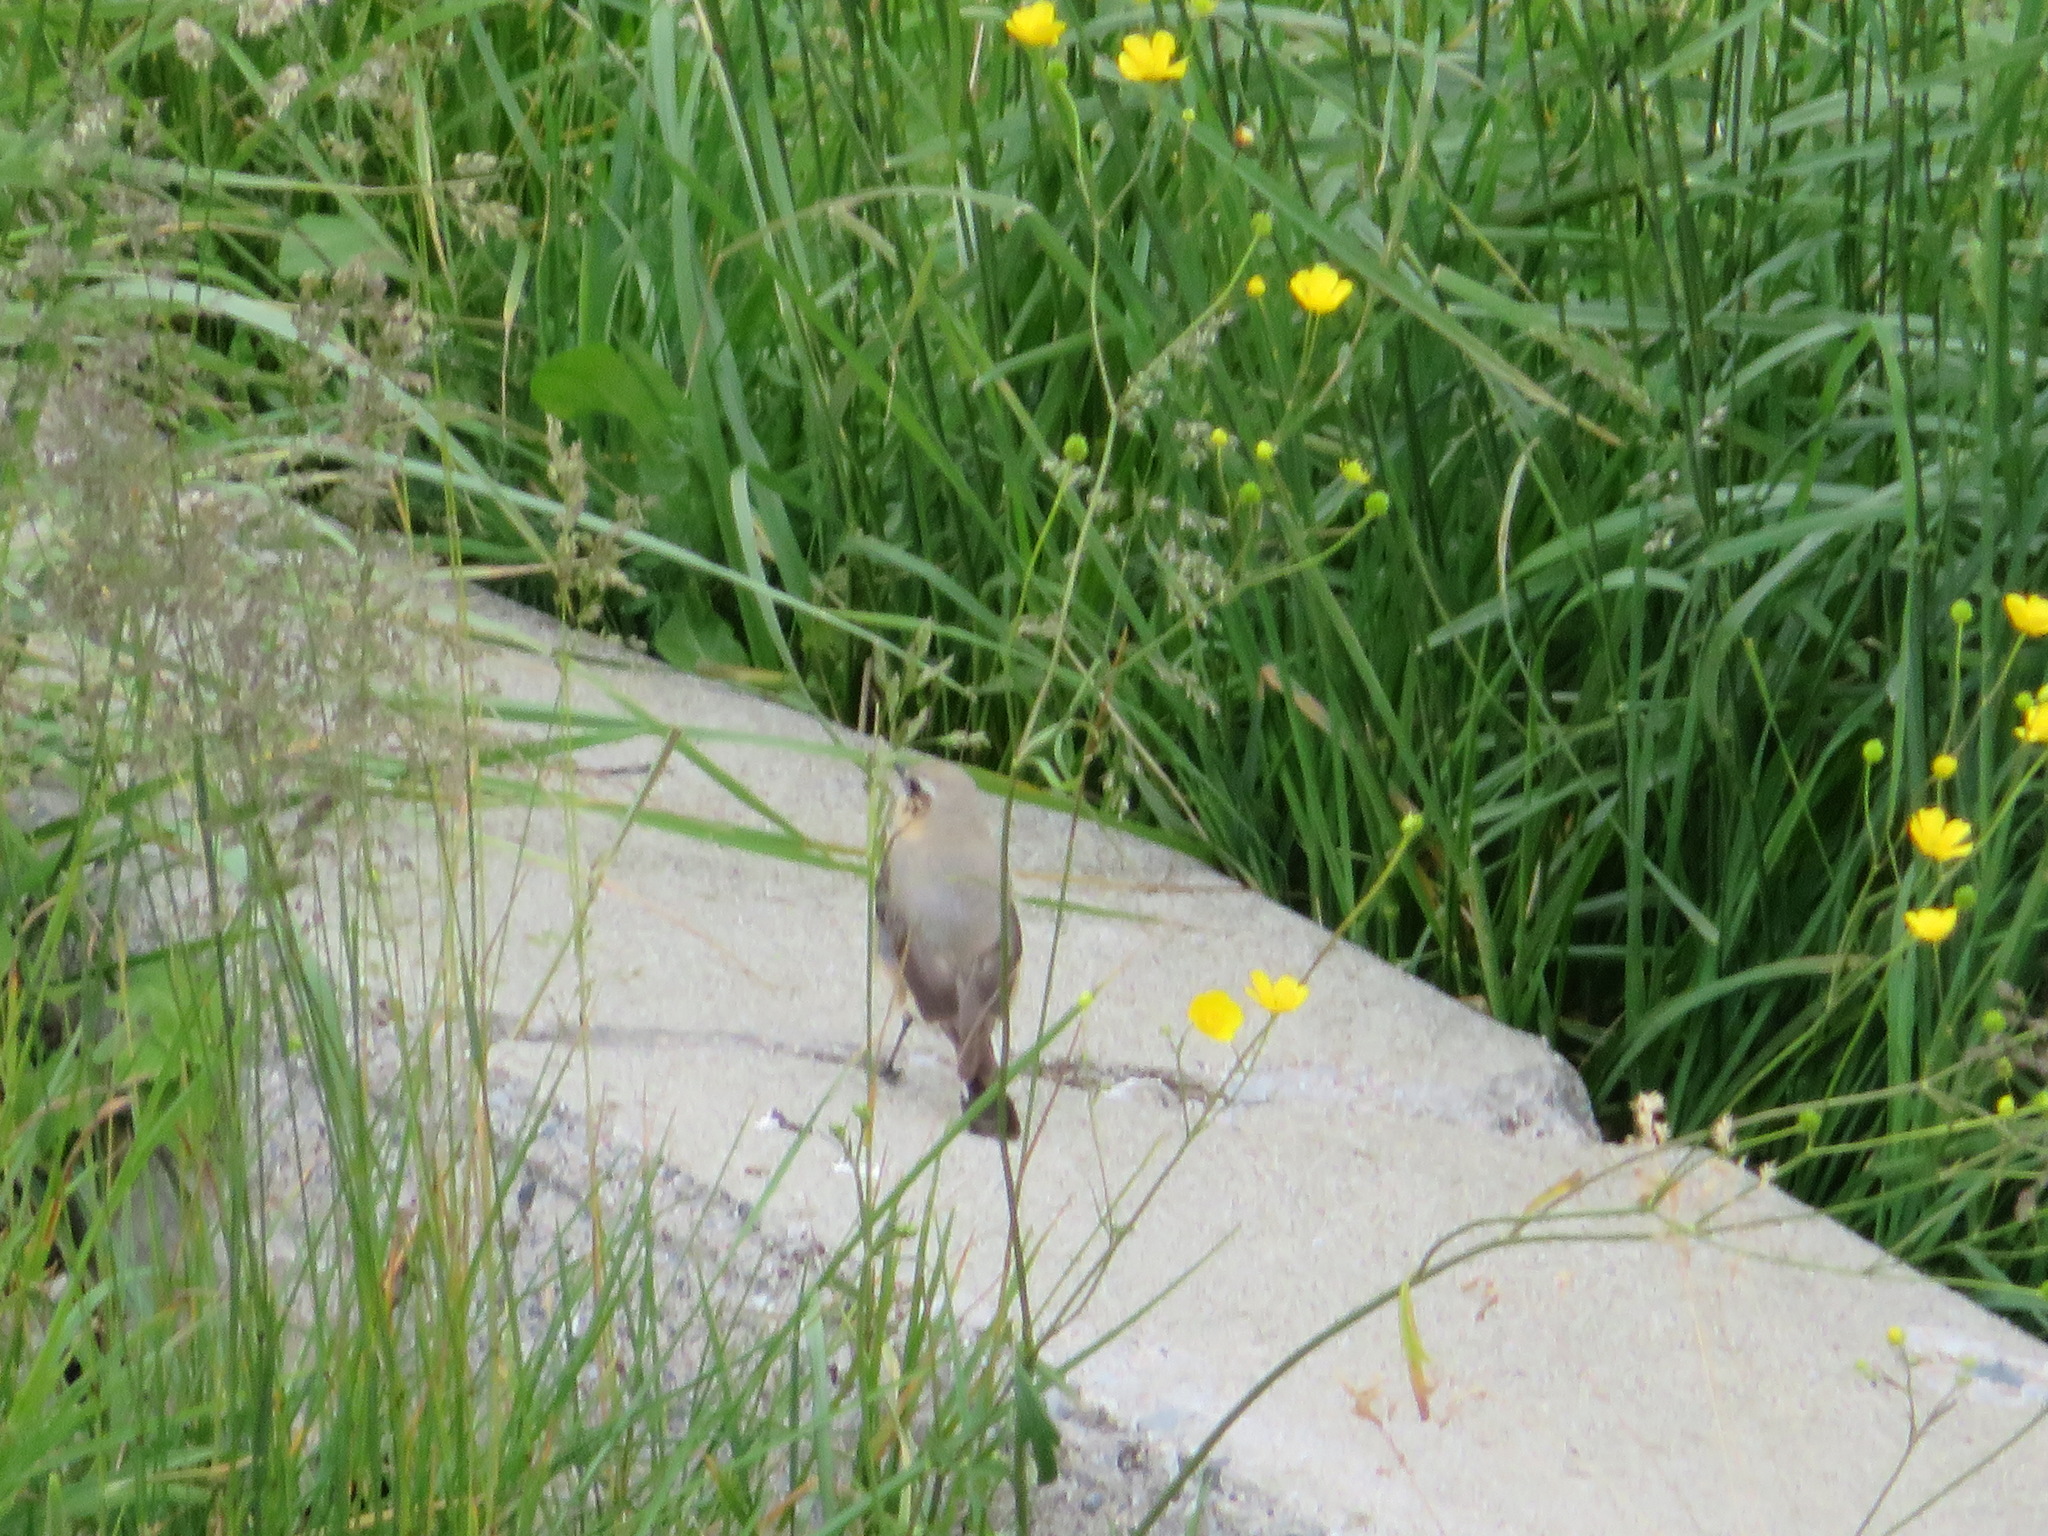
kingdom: Animalia
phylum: Chordata
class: Aves
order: Passeriformes
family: Muscicapidae
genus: Oenanthe
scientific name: Oenanthe oenanthe
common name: Northern wheatear
